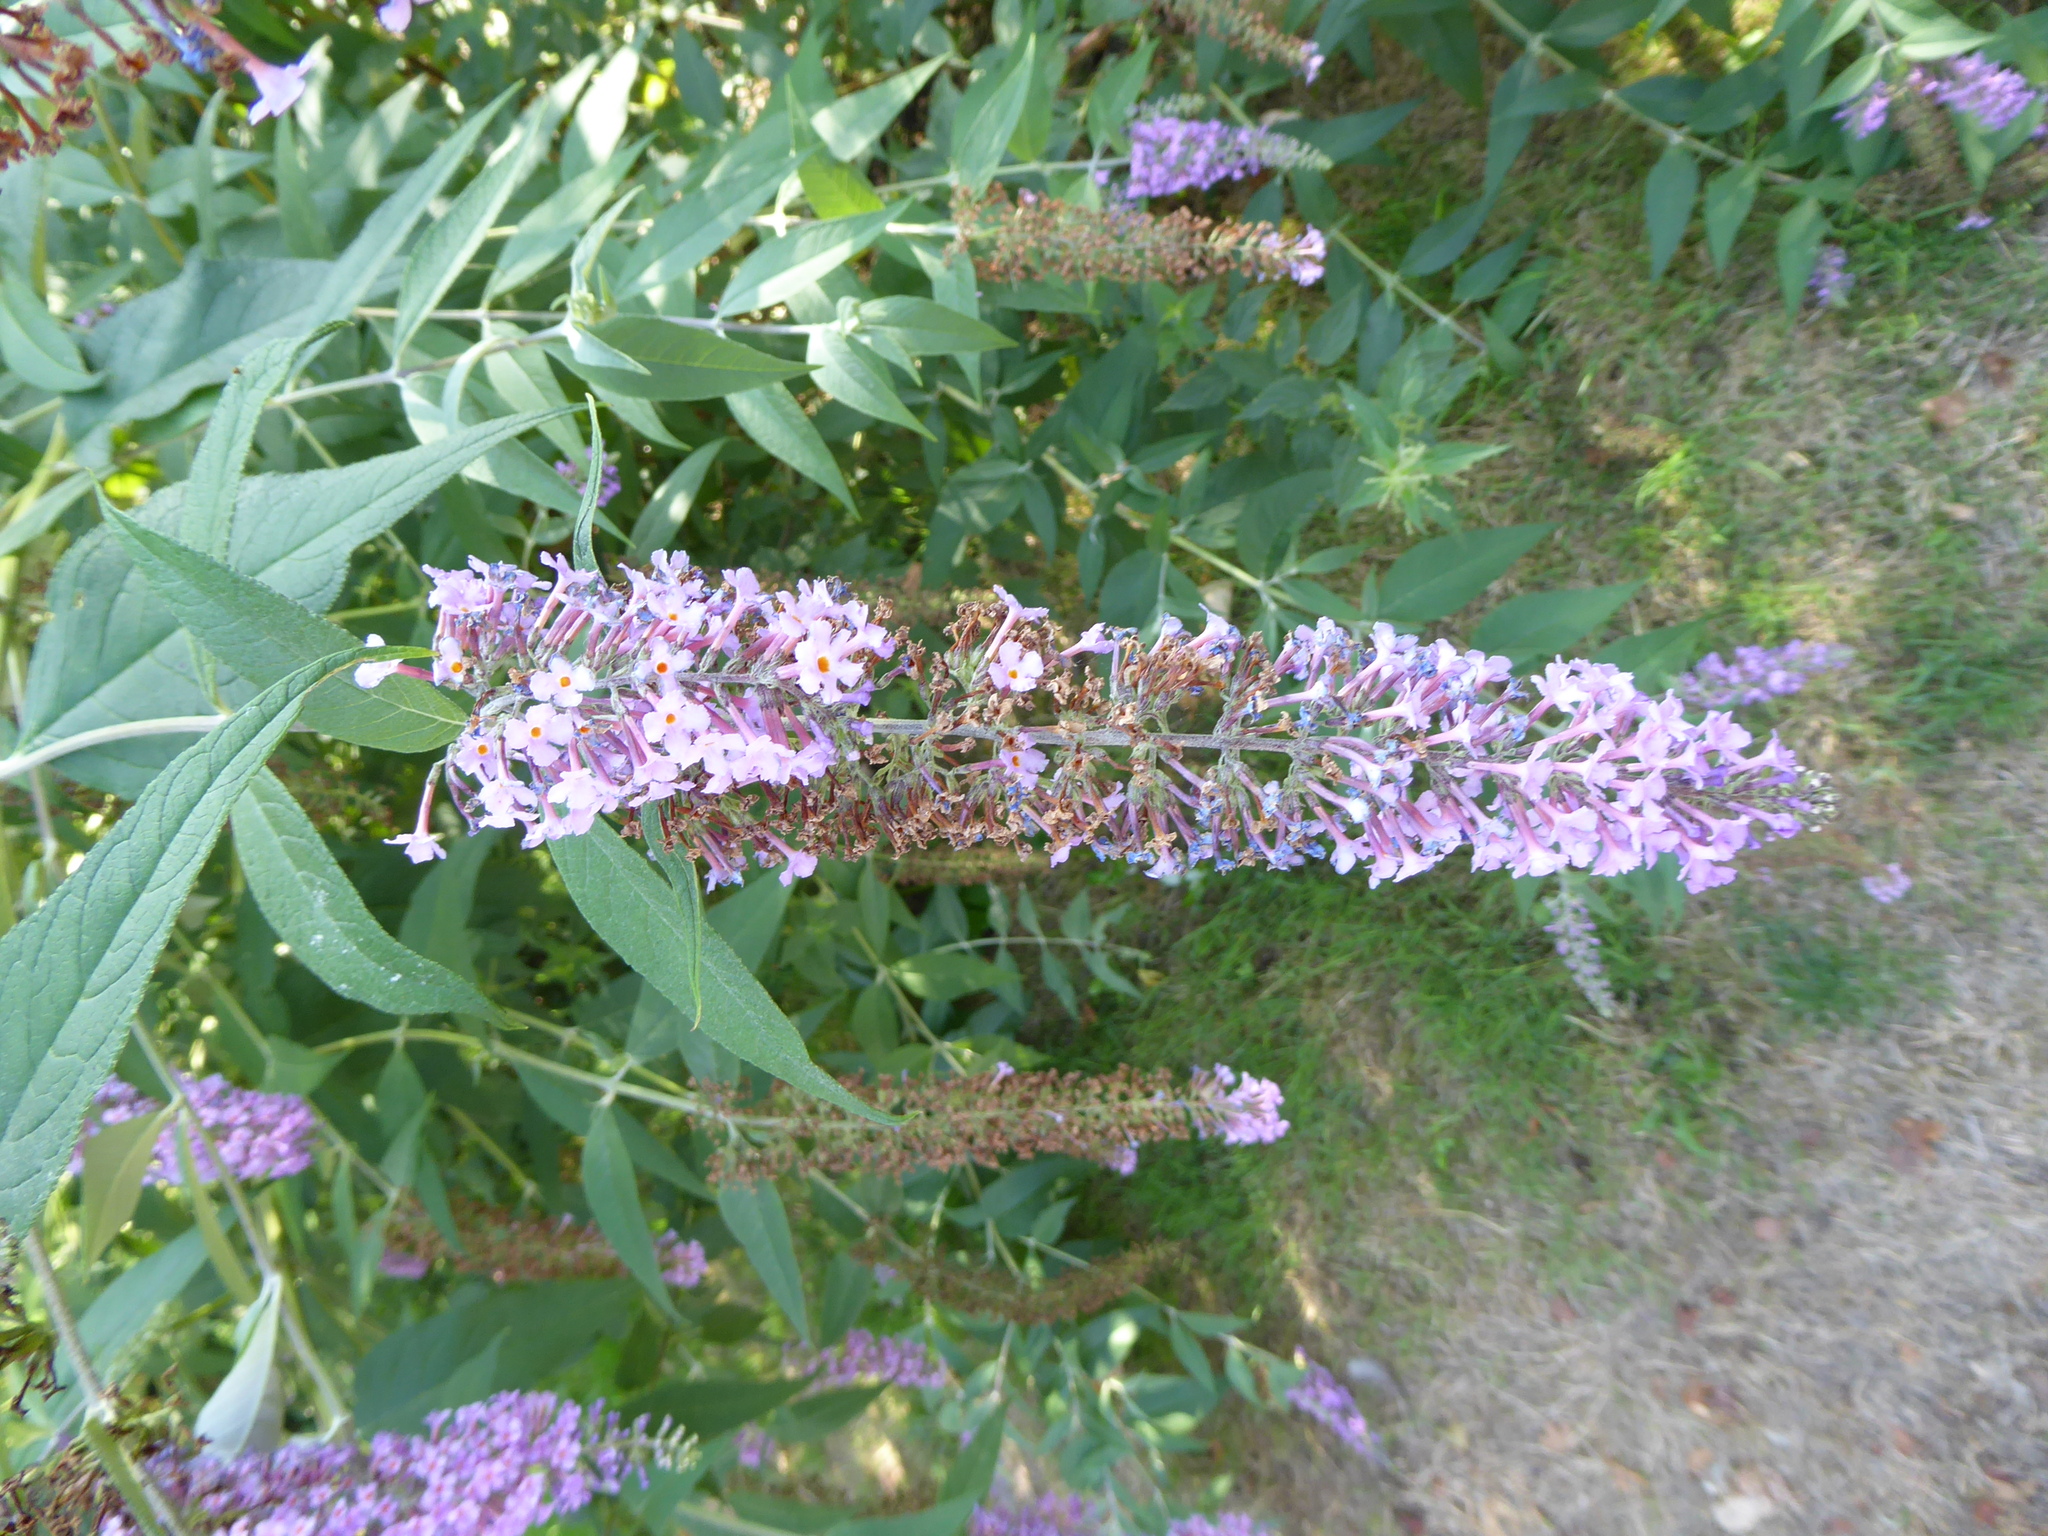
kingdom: Plantae
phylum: Tracheophyta
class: Magnoliopsida
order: Lamiales
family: Scrophulariaceae
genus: Buddleja
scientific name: Buddleja davidii
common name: Butterfly-bush
